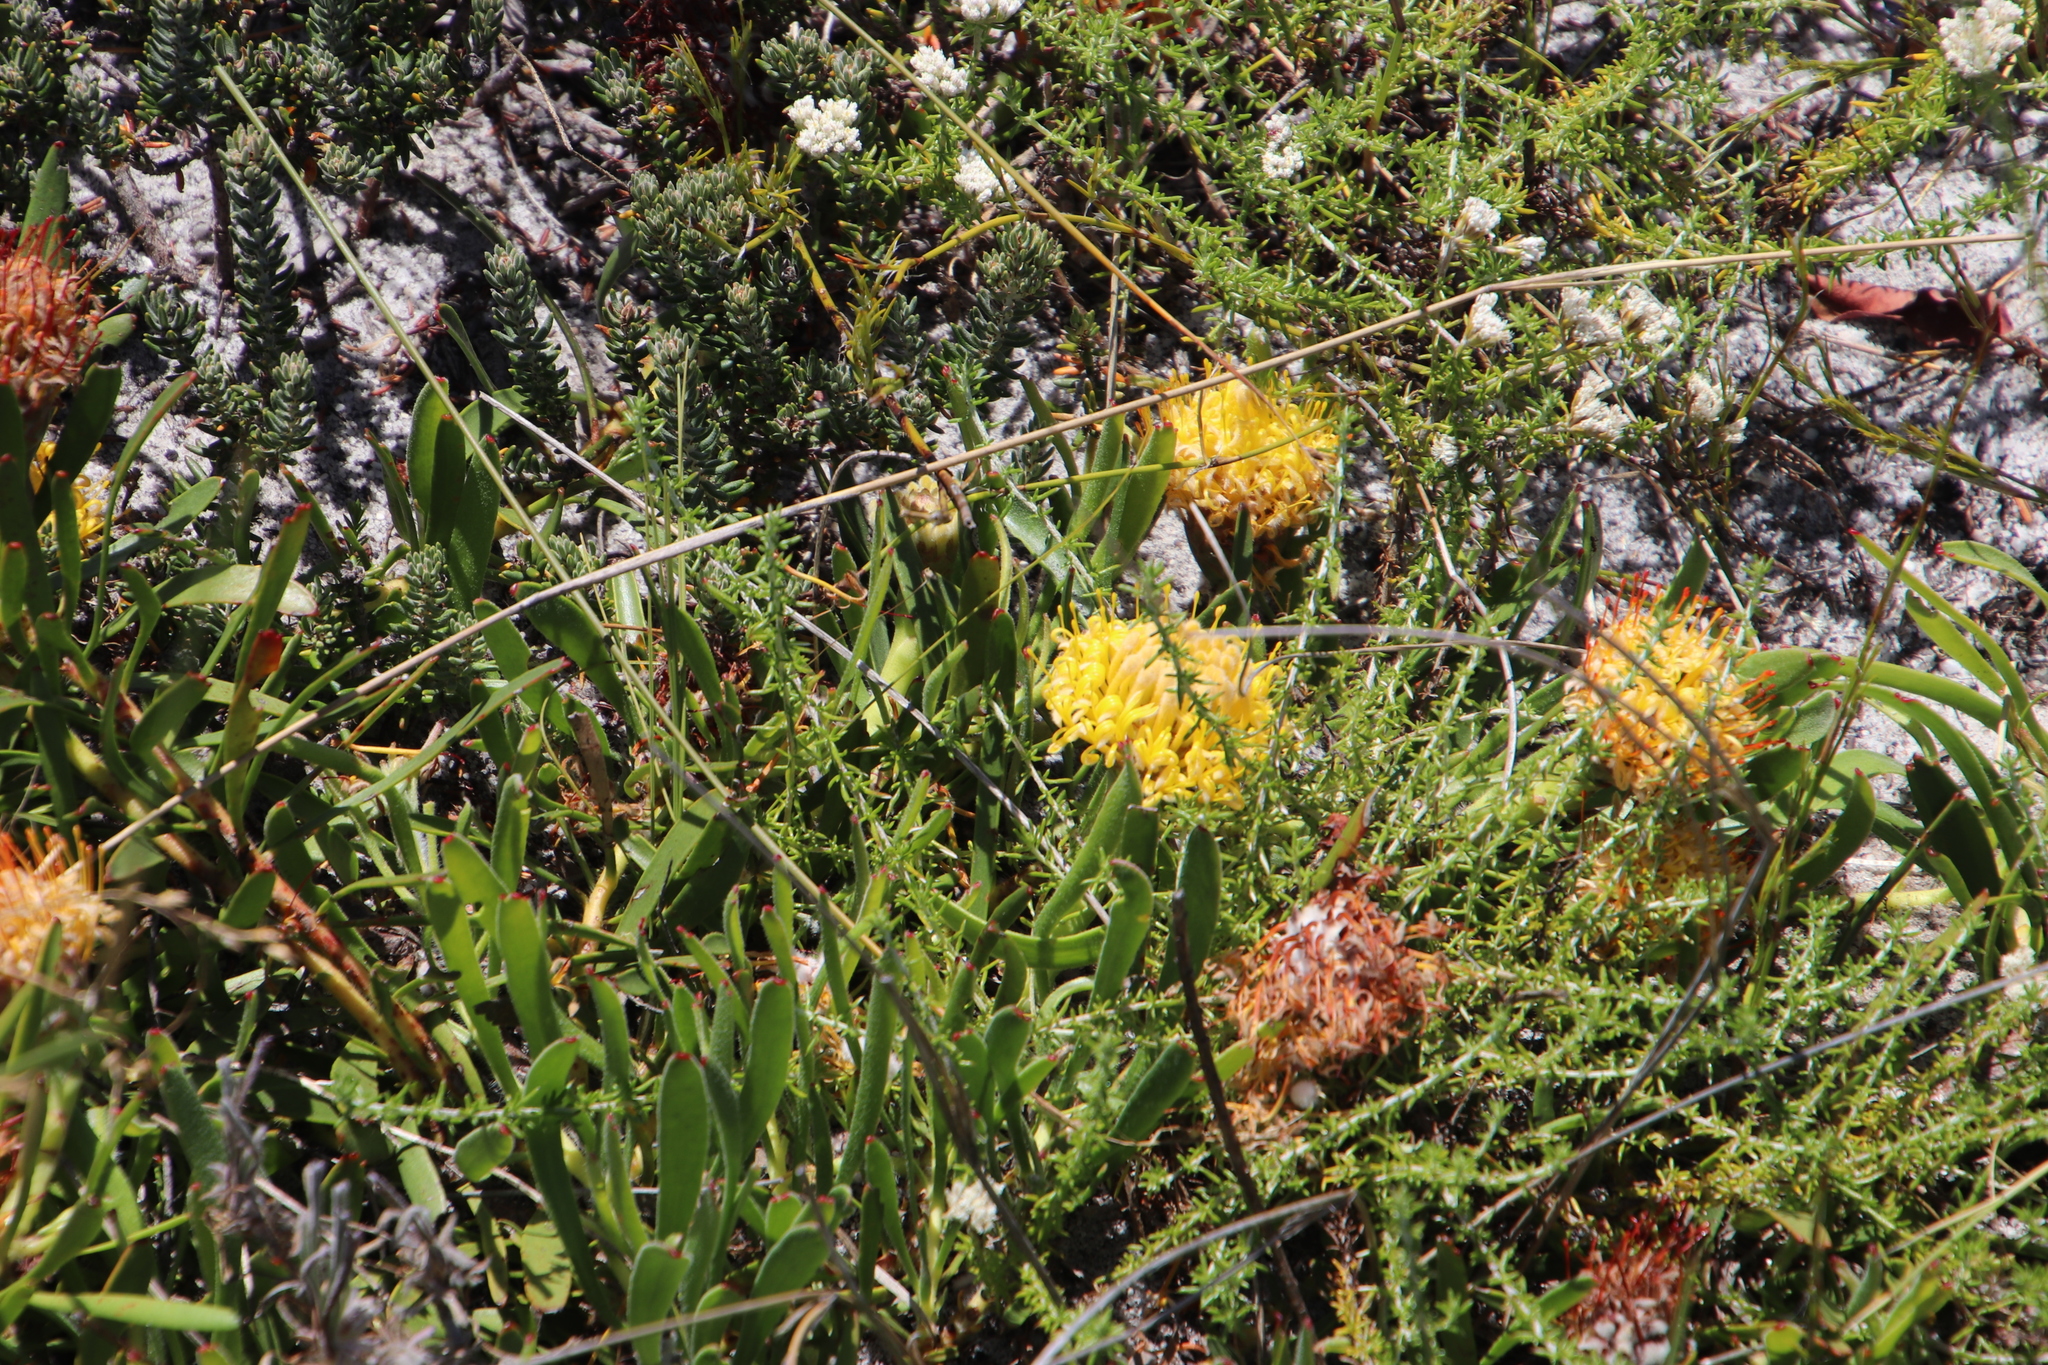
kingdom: Plantae
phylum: Tracheophyta
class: Magnoliopsida
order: Proteales
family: Proteaceae
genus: Leucospermum
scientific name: Leucospermum hypophyllocarpodendron
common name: Snakestem pincushion
